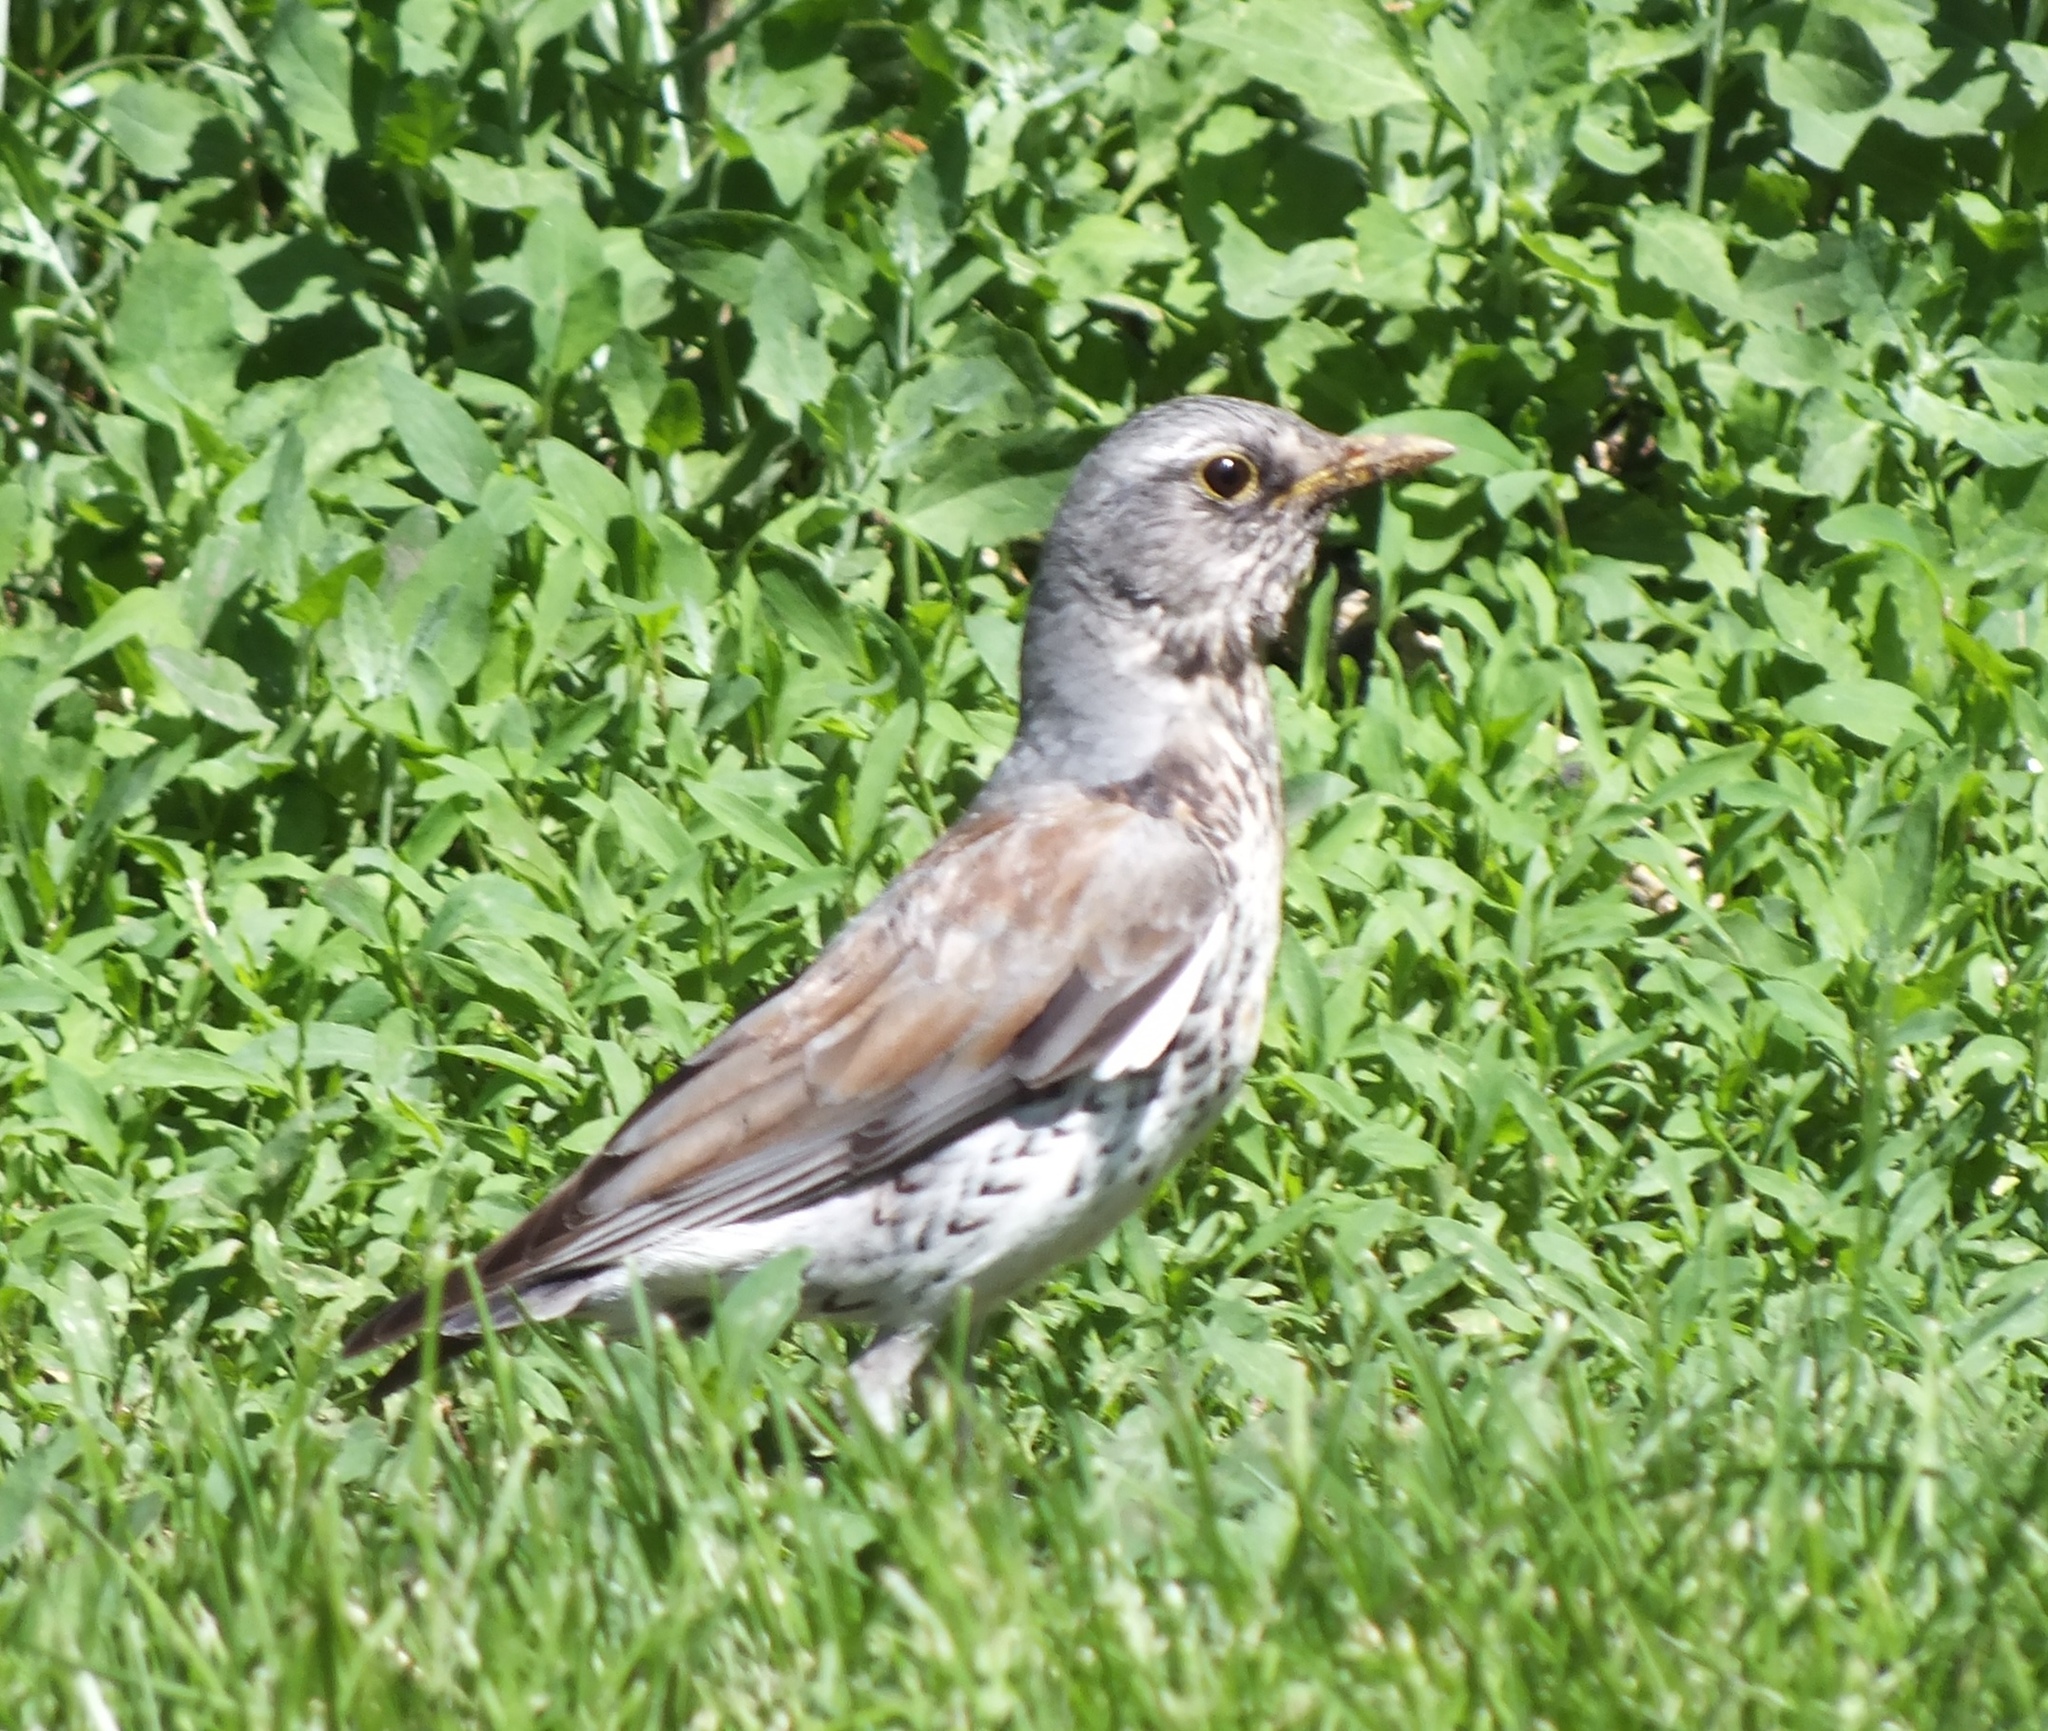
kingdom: Animalia
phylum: Chordata
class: Aves
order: Passeriformes
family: Turdidae
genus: Turdus
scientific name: Turdus pilaris
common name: Fieldfare
